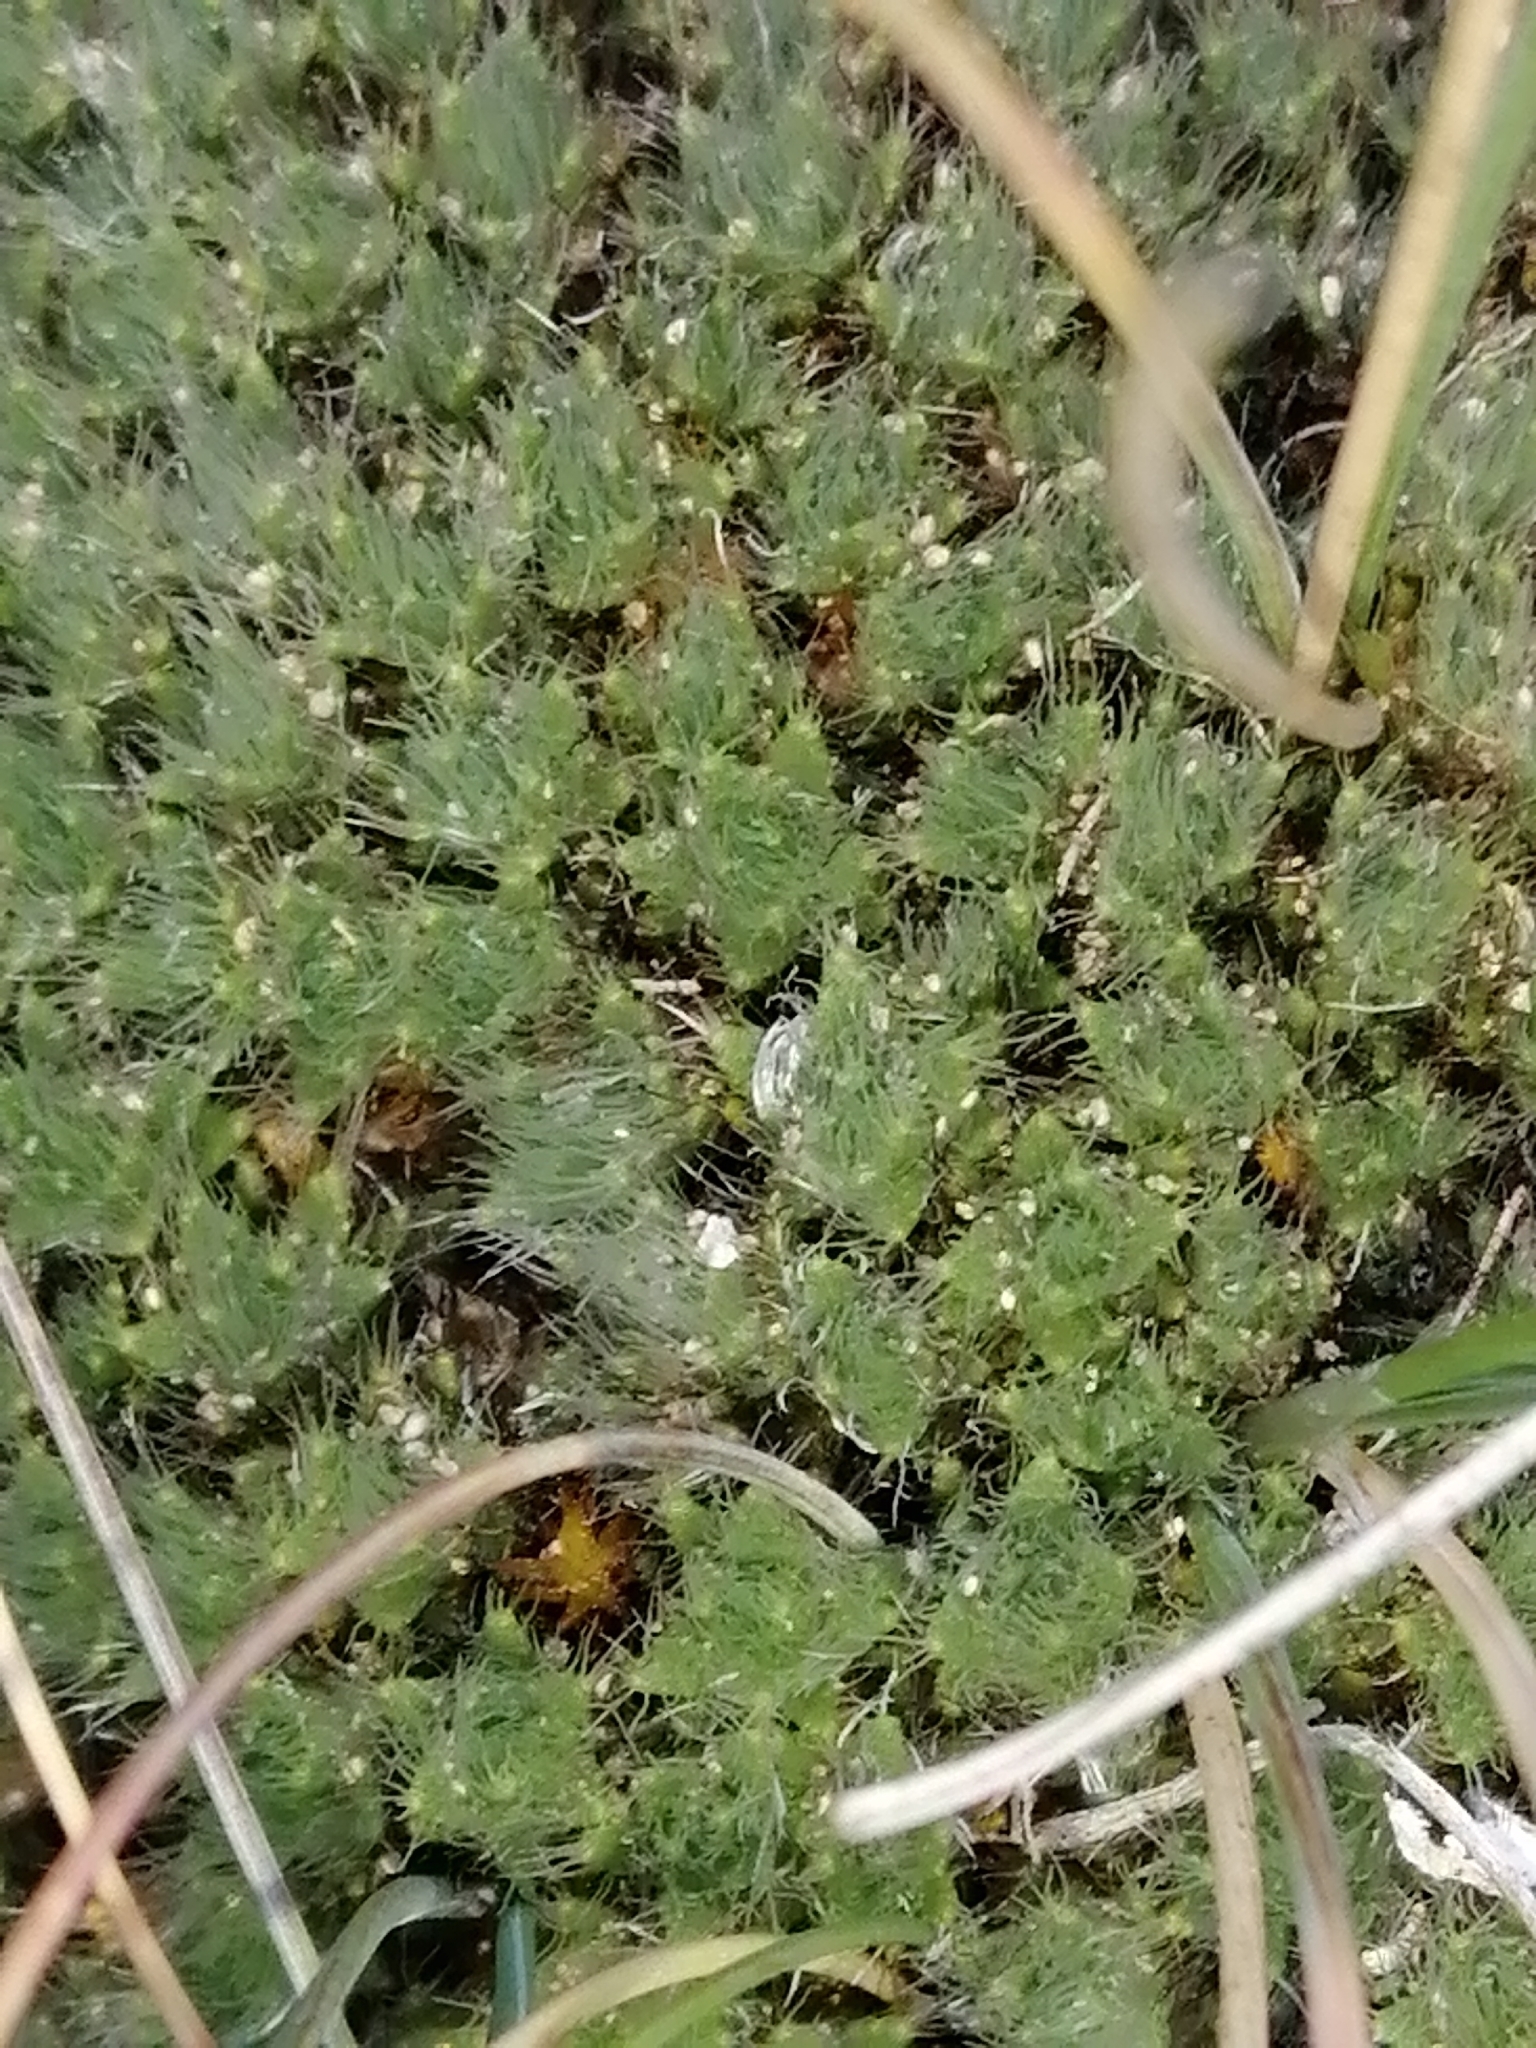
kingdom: Plantae
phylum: Tracheophyta
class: Magnoliopsida
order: Lamiales
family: Plantaginaceae
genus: Veronica
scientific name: Veronica pulvinaris
